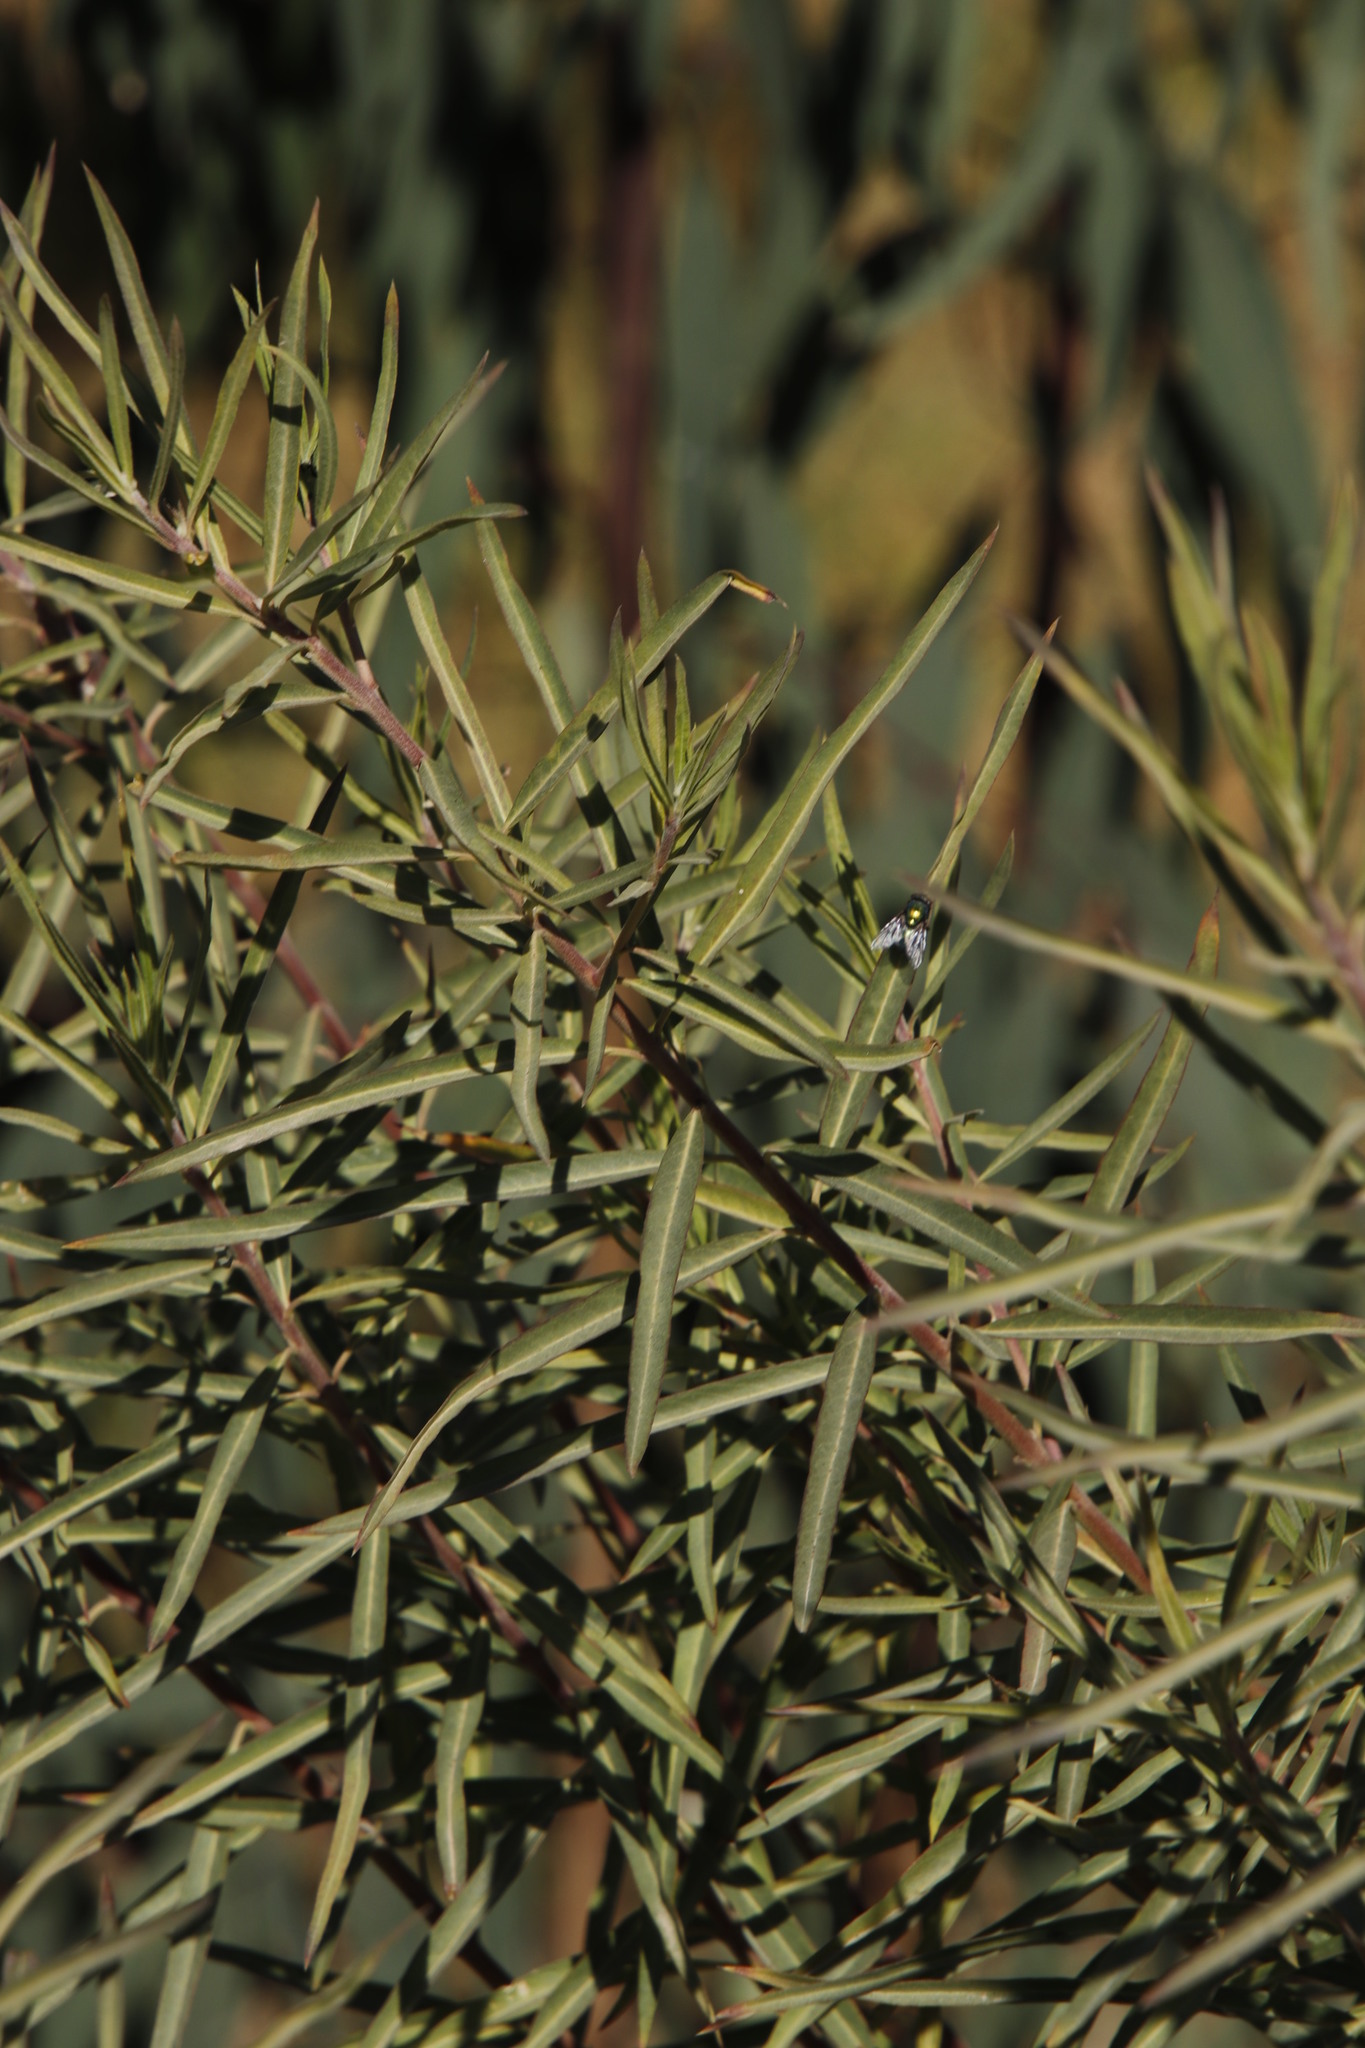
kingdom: Plantae
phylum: Tracheophyta
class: Magnoliopsida
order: Gentianales
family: Apocynaceae
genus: Gomphocarpus
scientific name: Gomphocarpus fruticosus
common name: Milkweed
